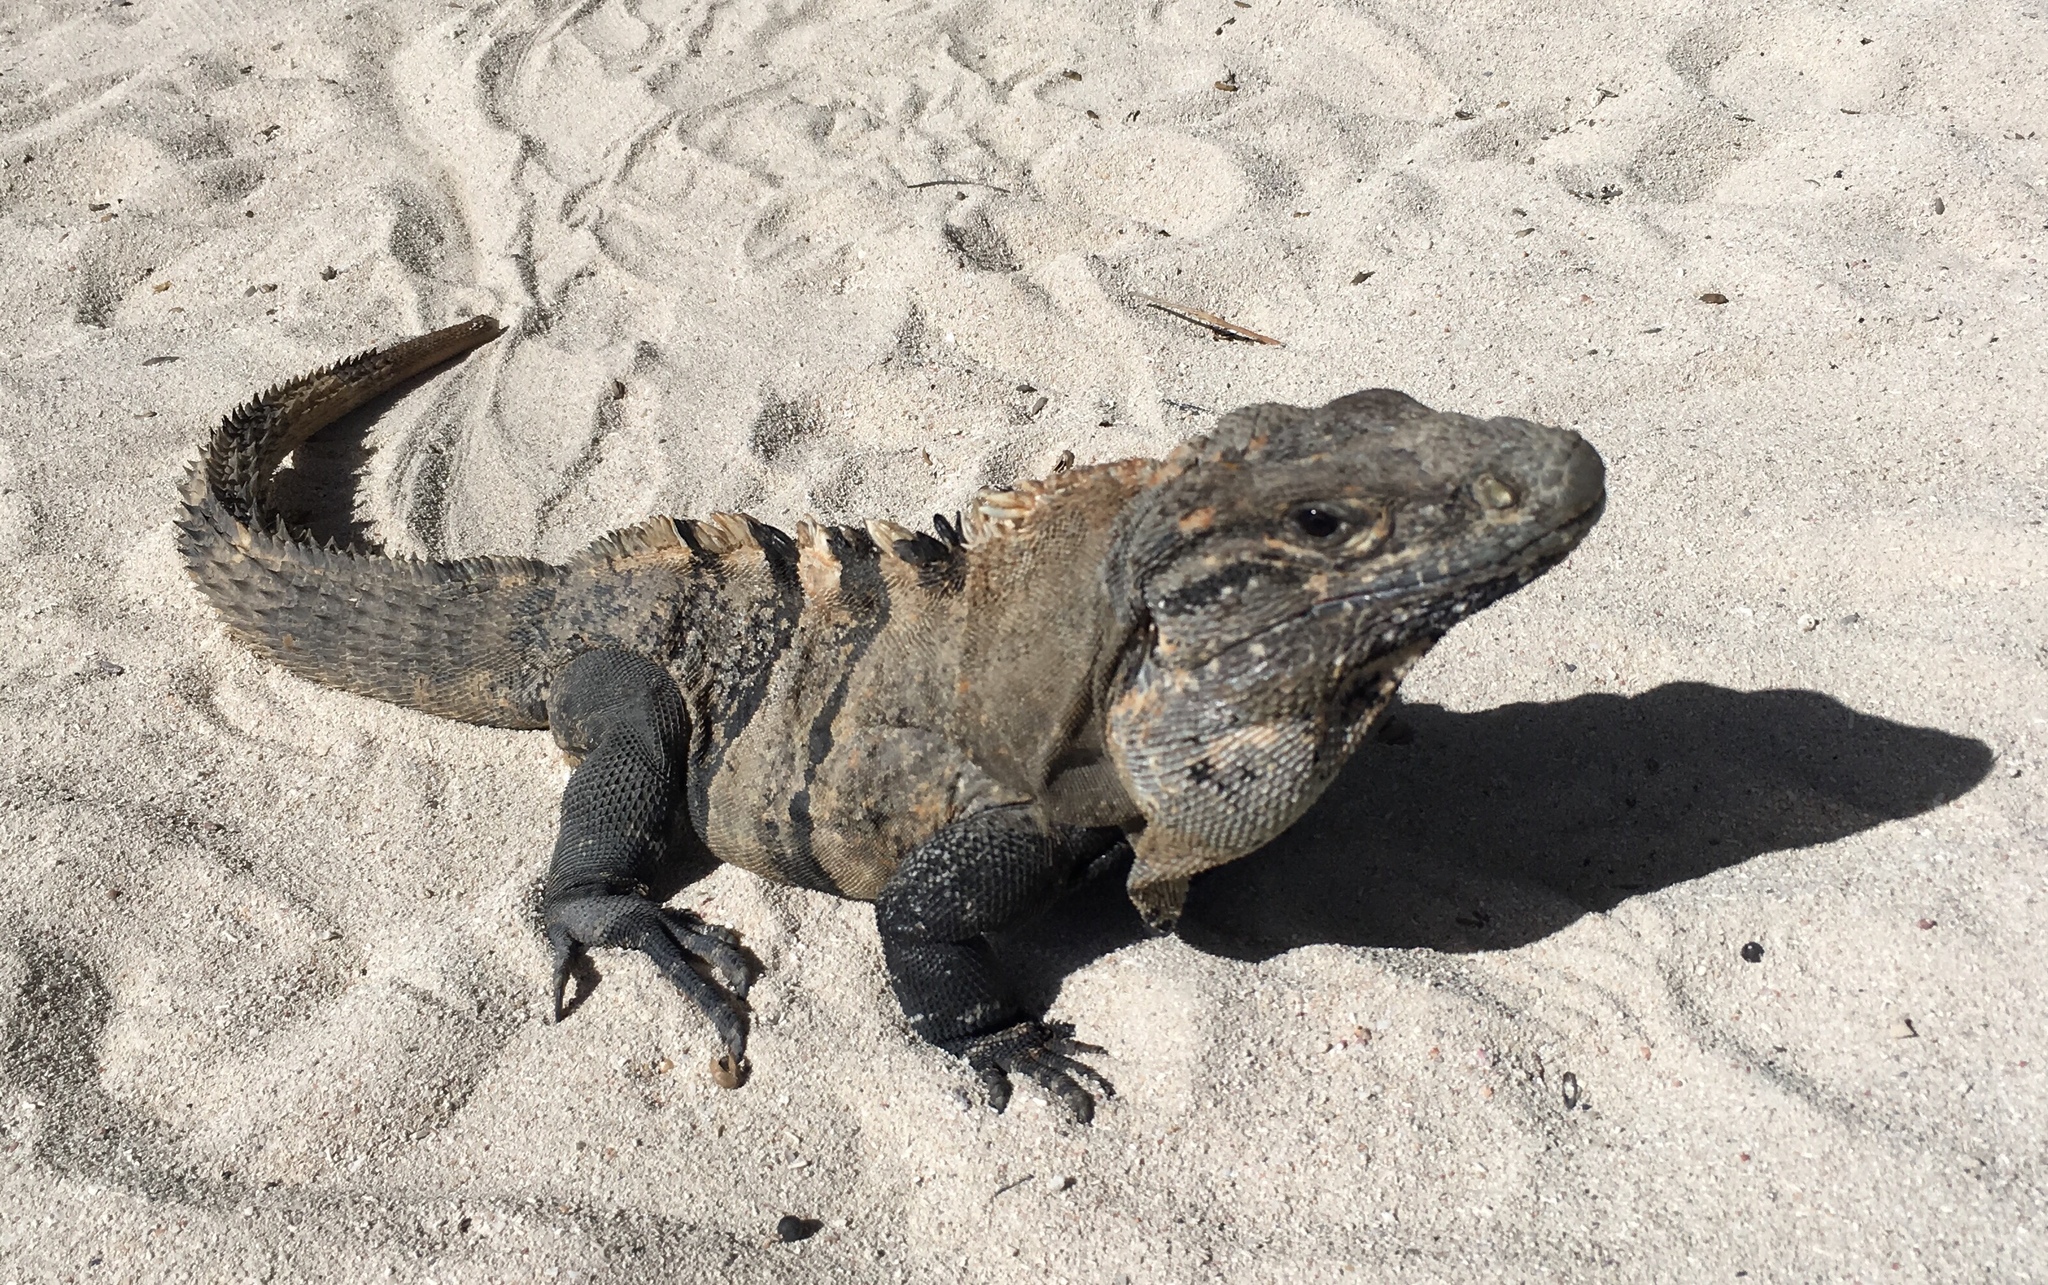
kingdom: Animalia
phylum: Chordata
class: Squamata
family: Iguanidae
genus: Ctenosaura
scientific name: Ctenosaura similis
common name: Black spiny-tailed iguana
